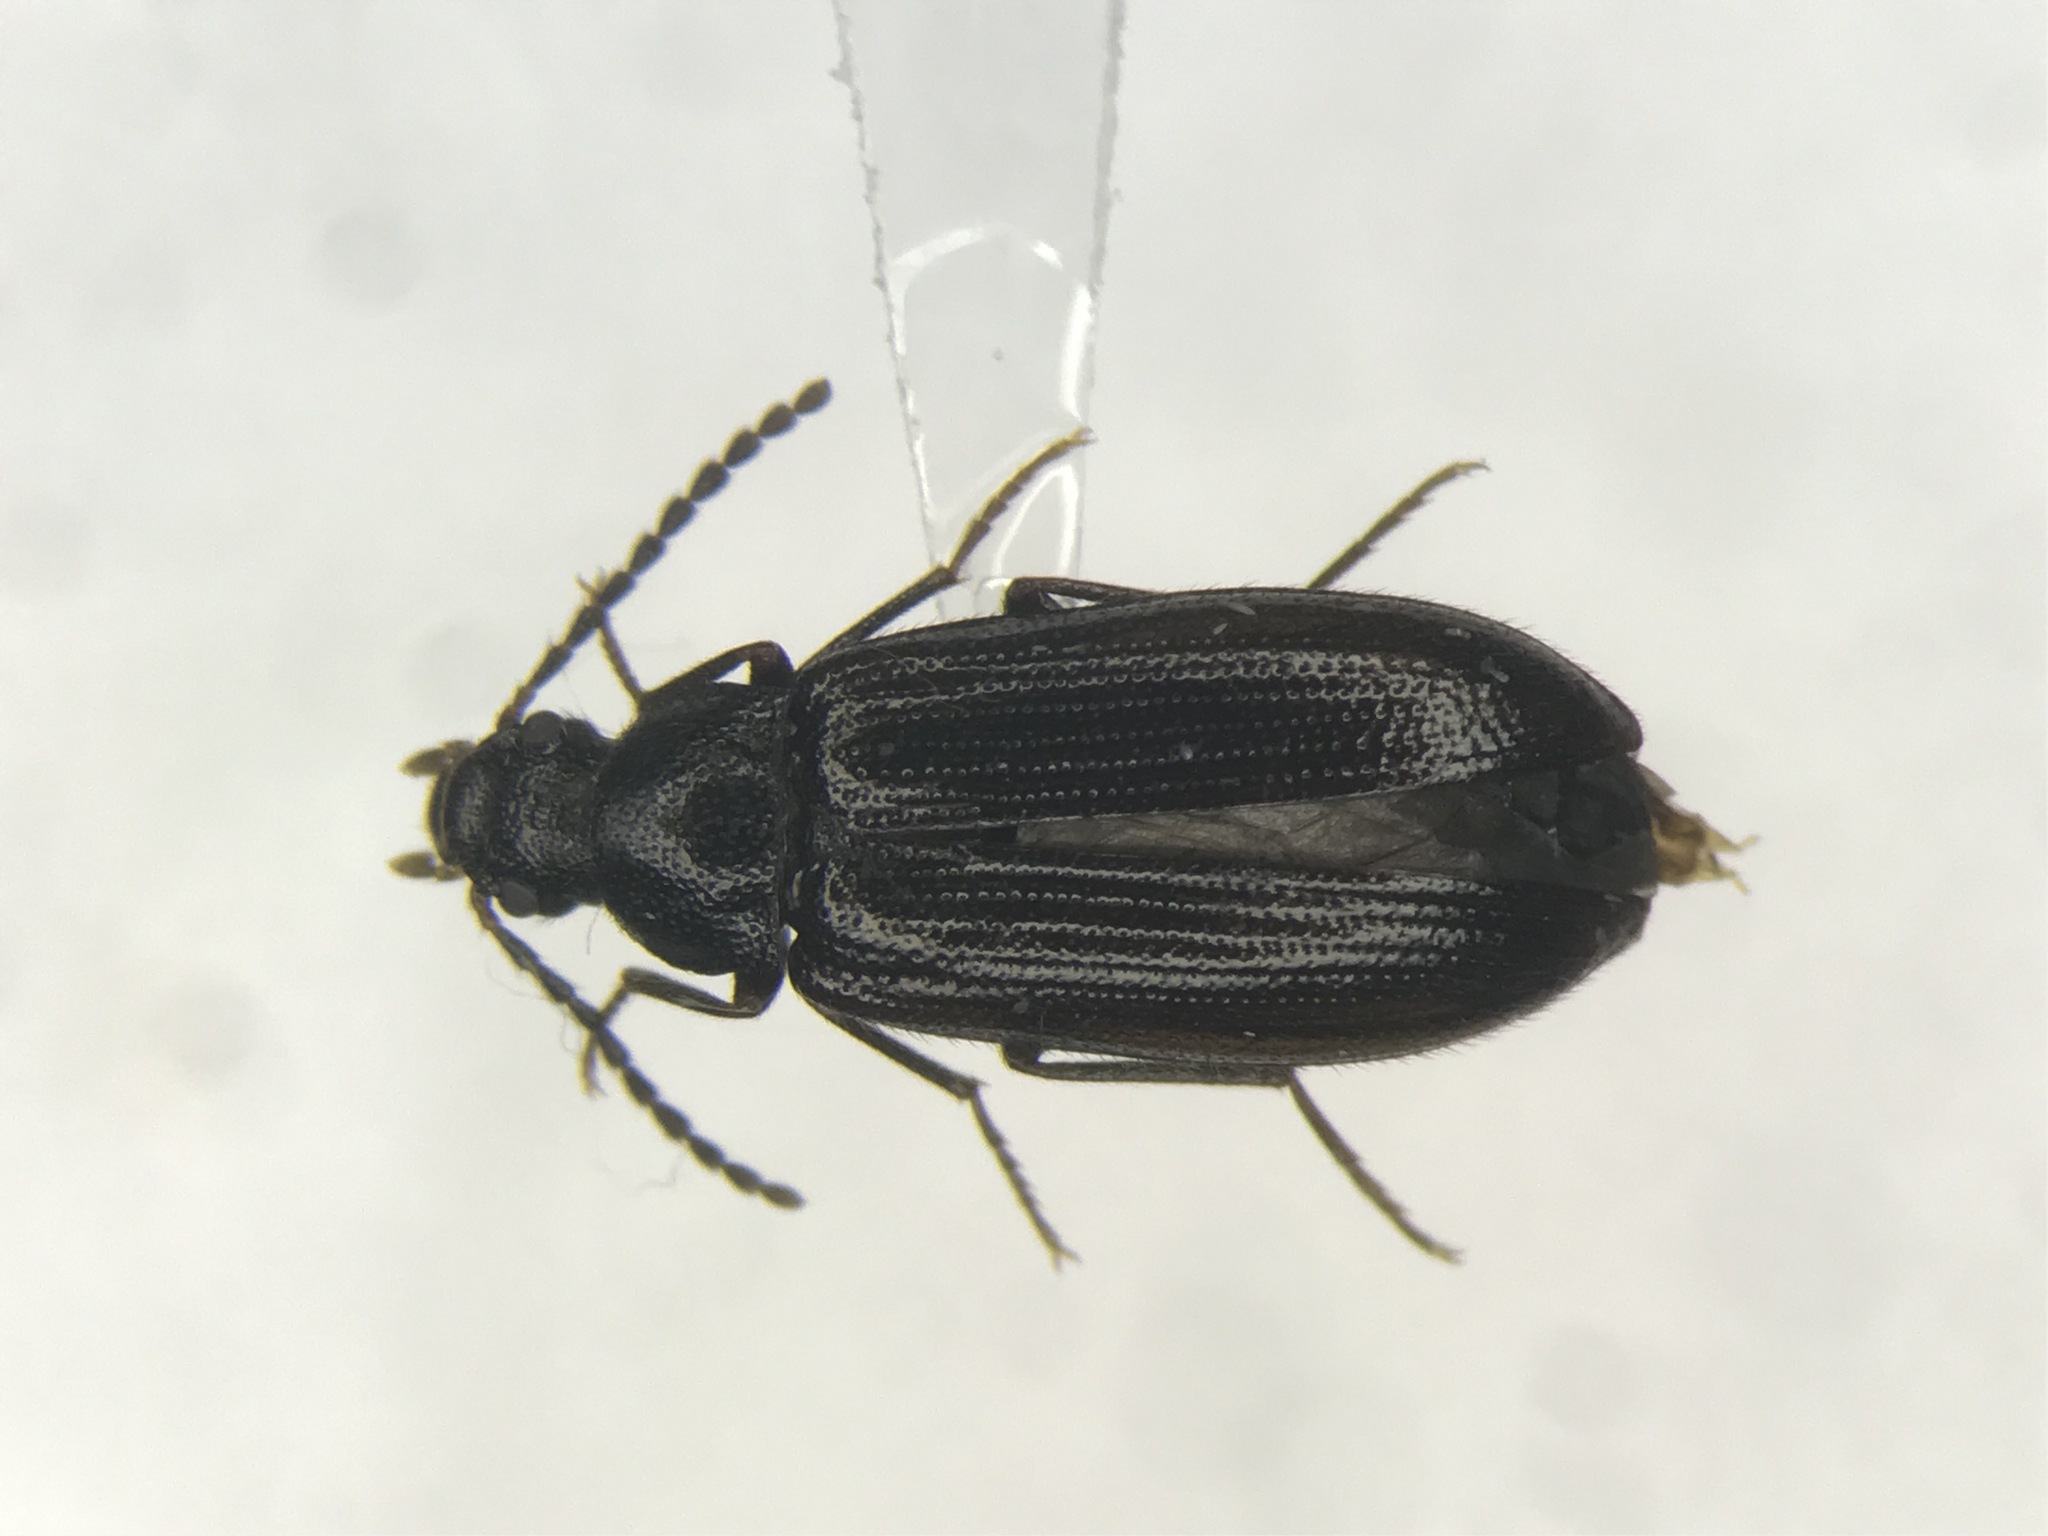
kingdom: Animalia
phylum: Arthropoda
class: Insecta
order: Coleoptera
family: Tenebrionidae
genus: Mycetochara
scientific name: Mycetochara foveata
